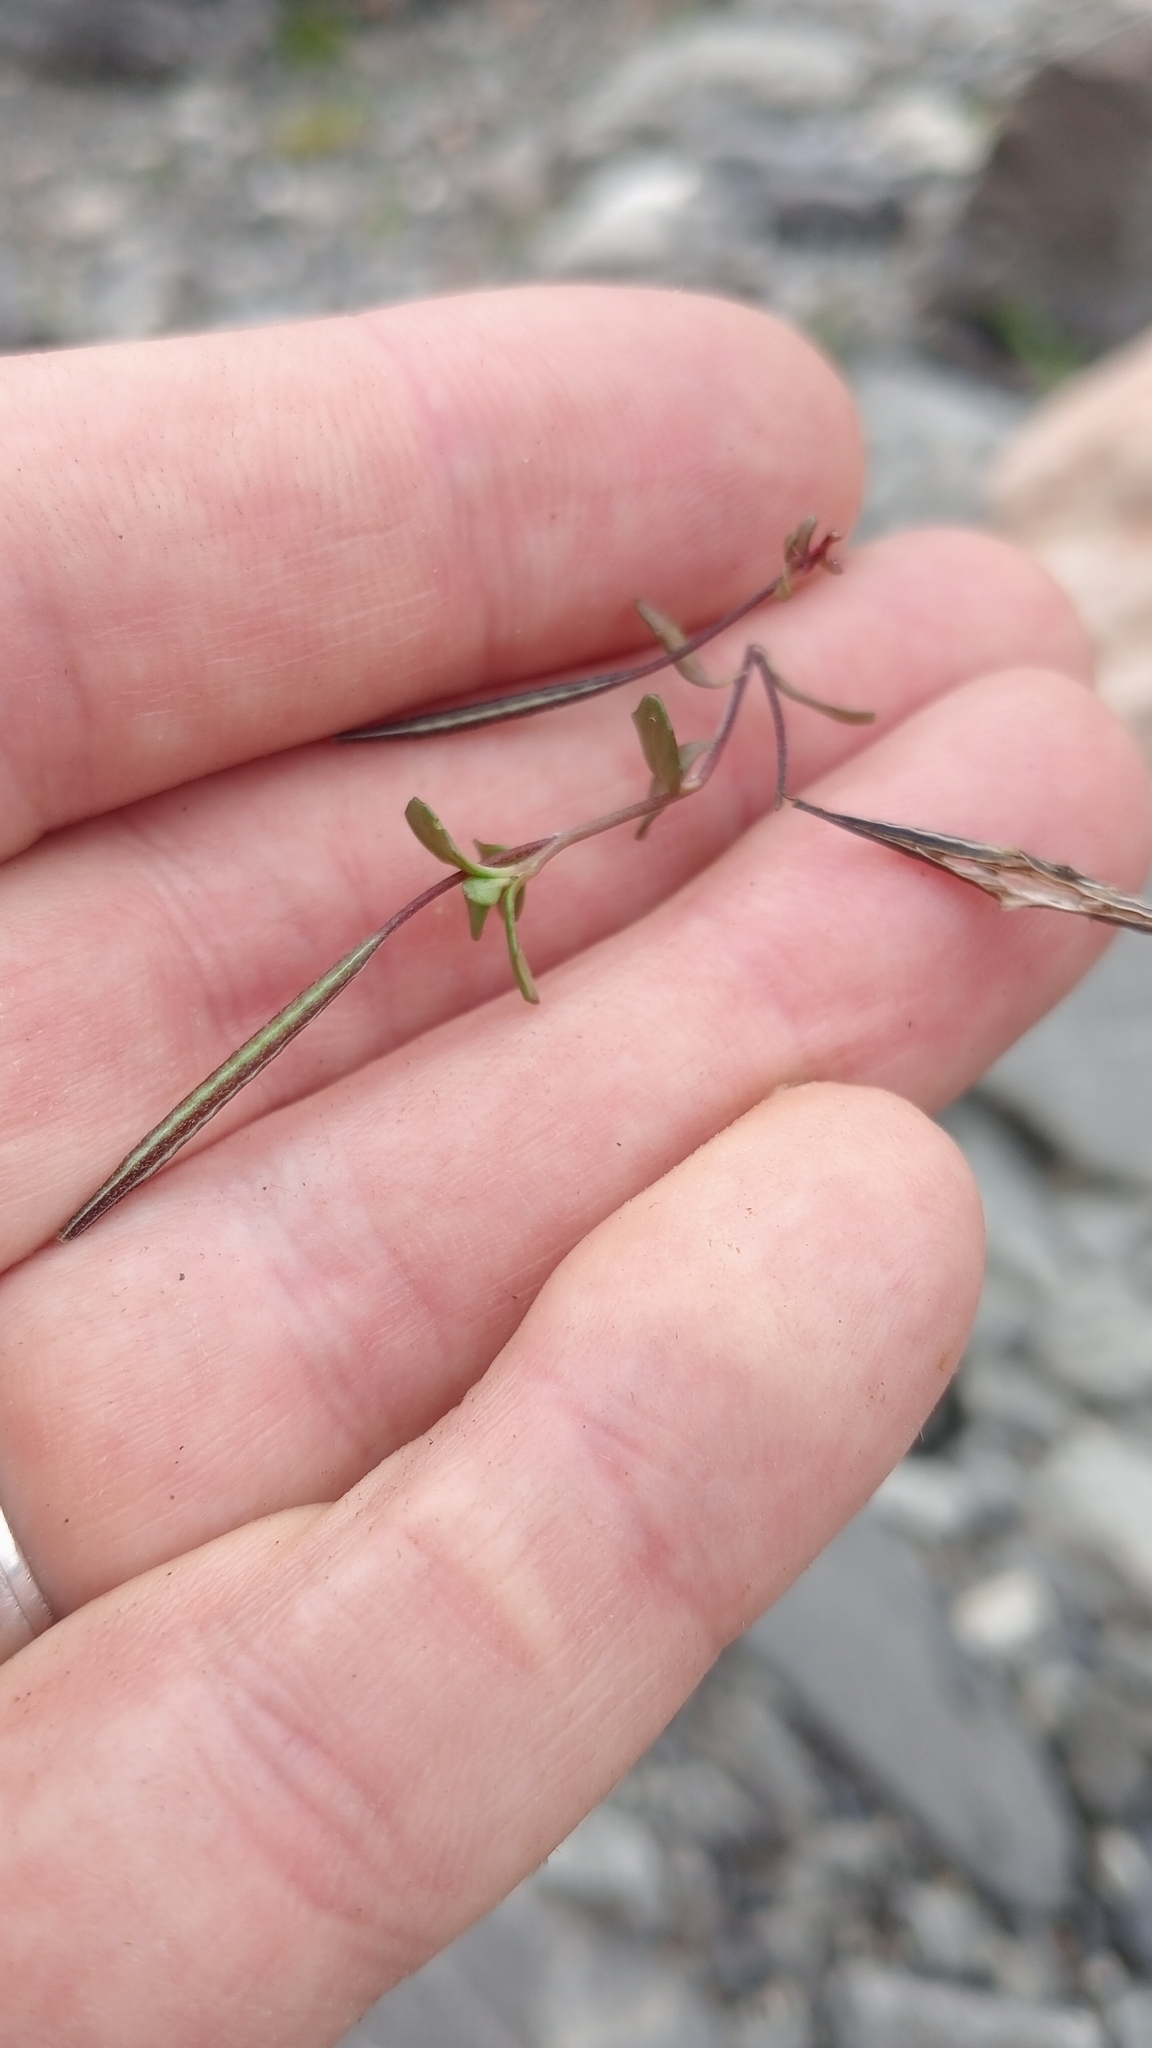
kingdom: Plantae
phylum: Tracheophyta
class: Magnoliopsida
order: Myrtales
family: Onagraceae
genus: Epilobium
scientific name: Epilobium microphyllum
